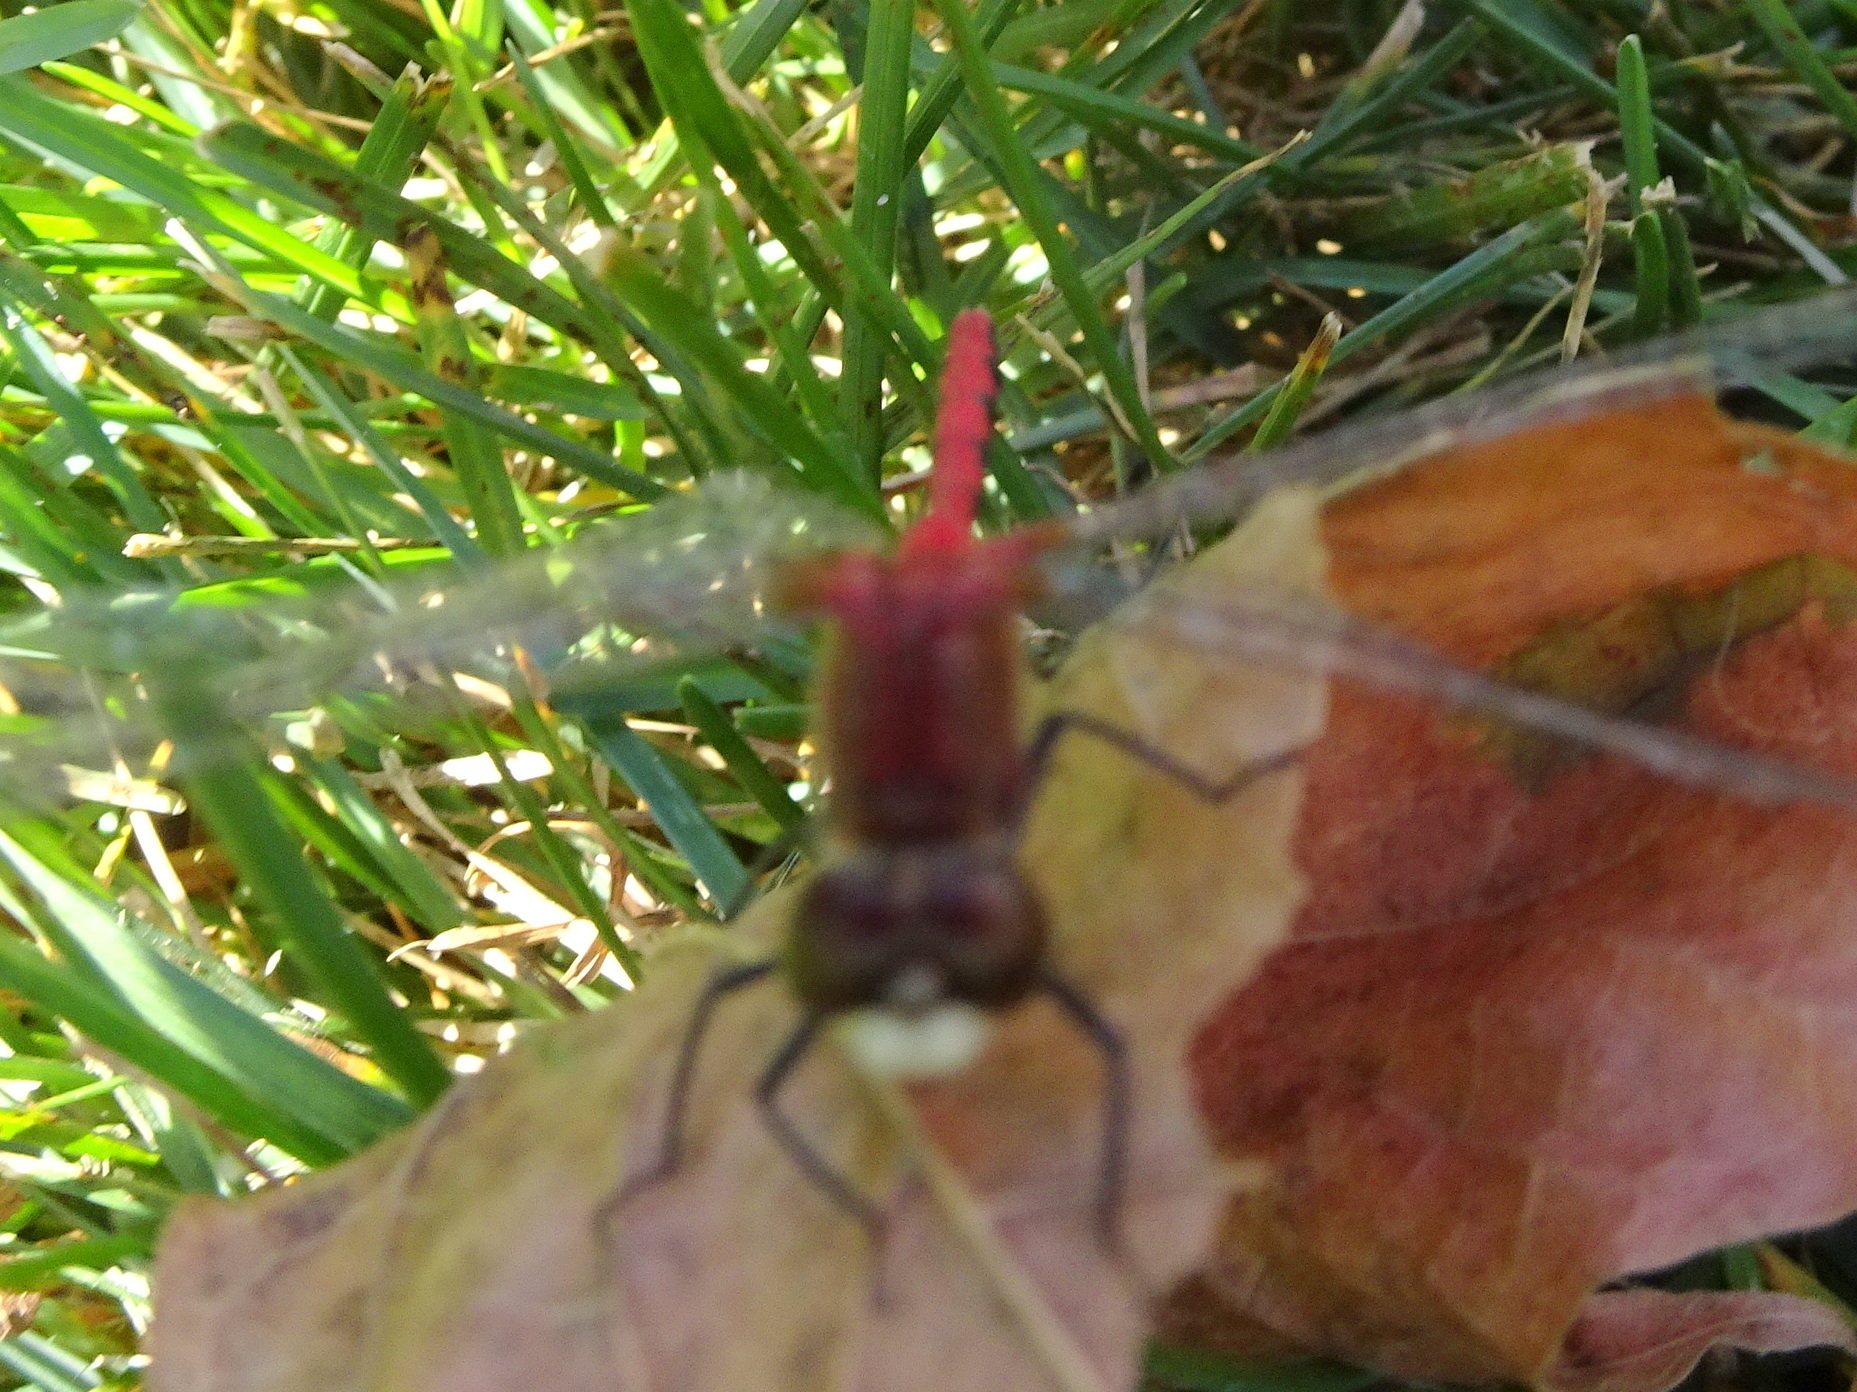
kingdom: Animalia
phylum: Arthropoda
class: Insecta
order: Odonata
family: Libellulidae
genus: Sympetrum
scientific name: Sympetrum obtrusum
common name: White-faced meadowhawk
